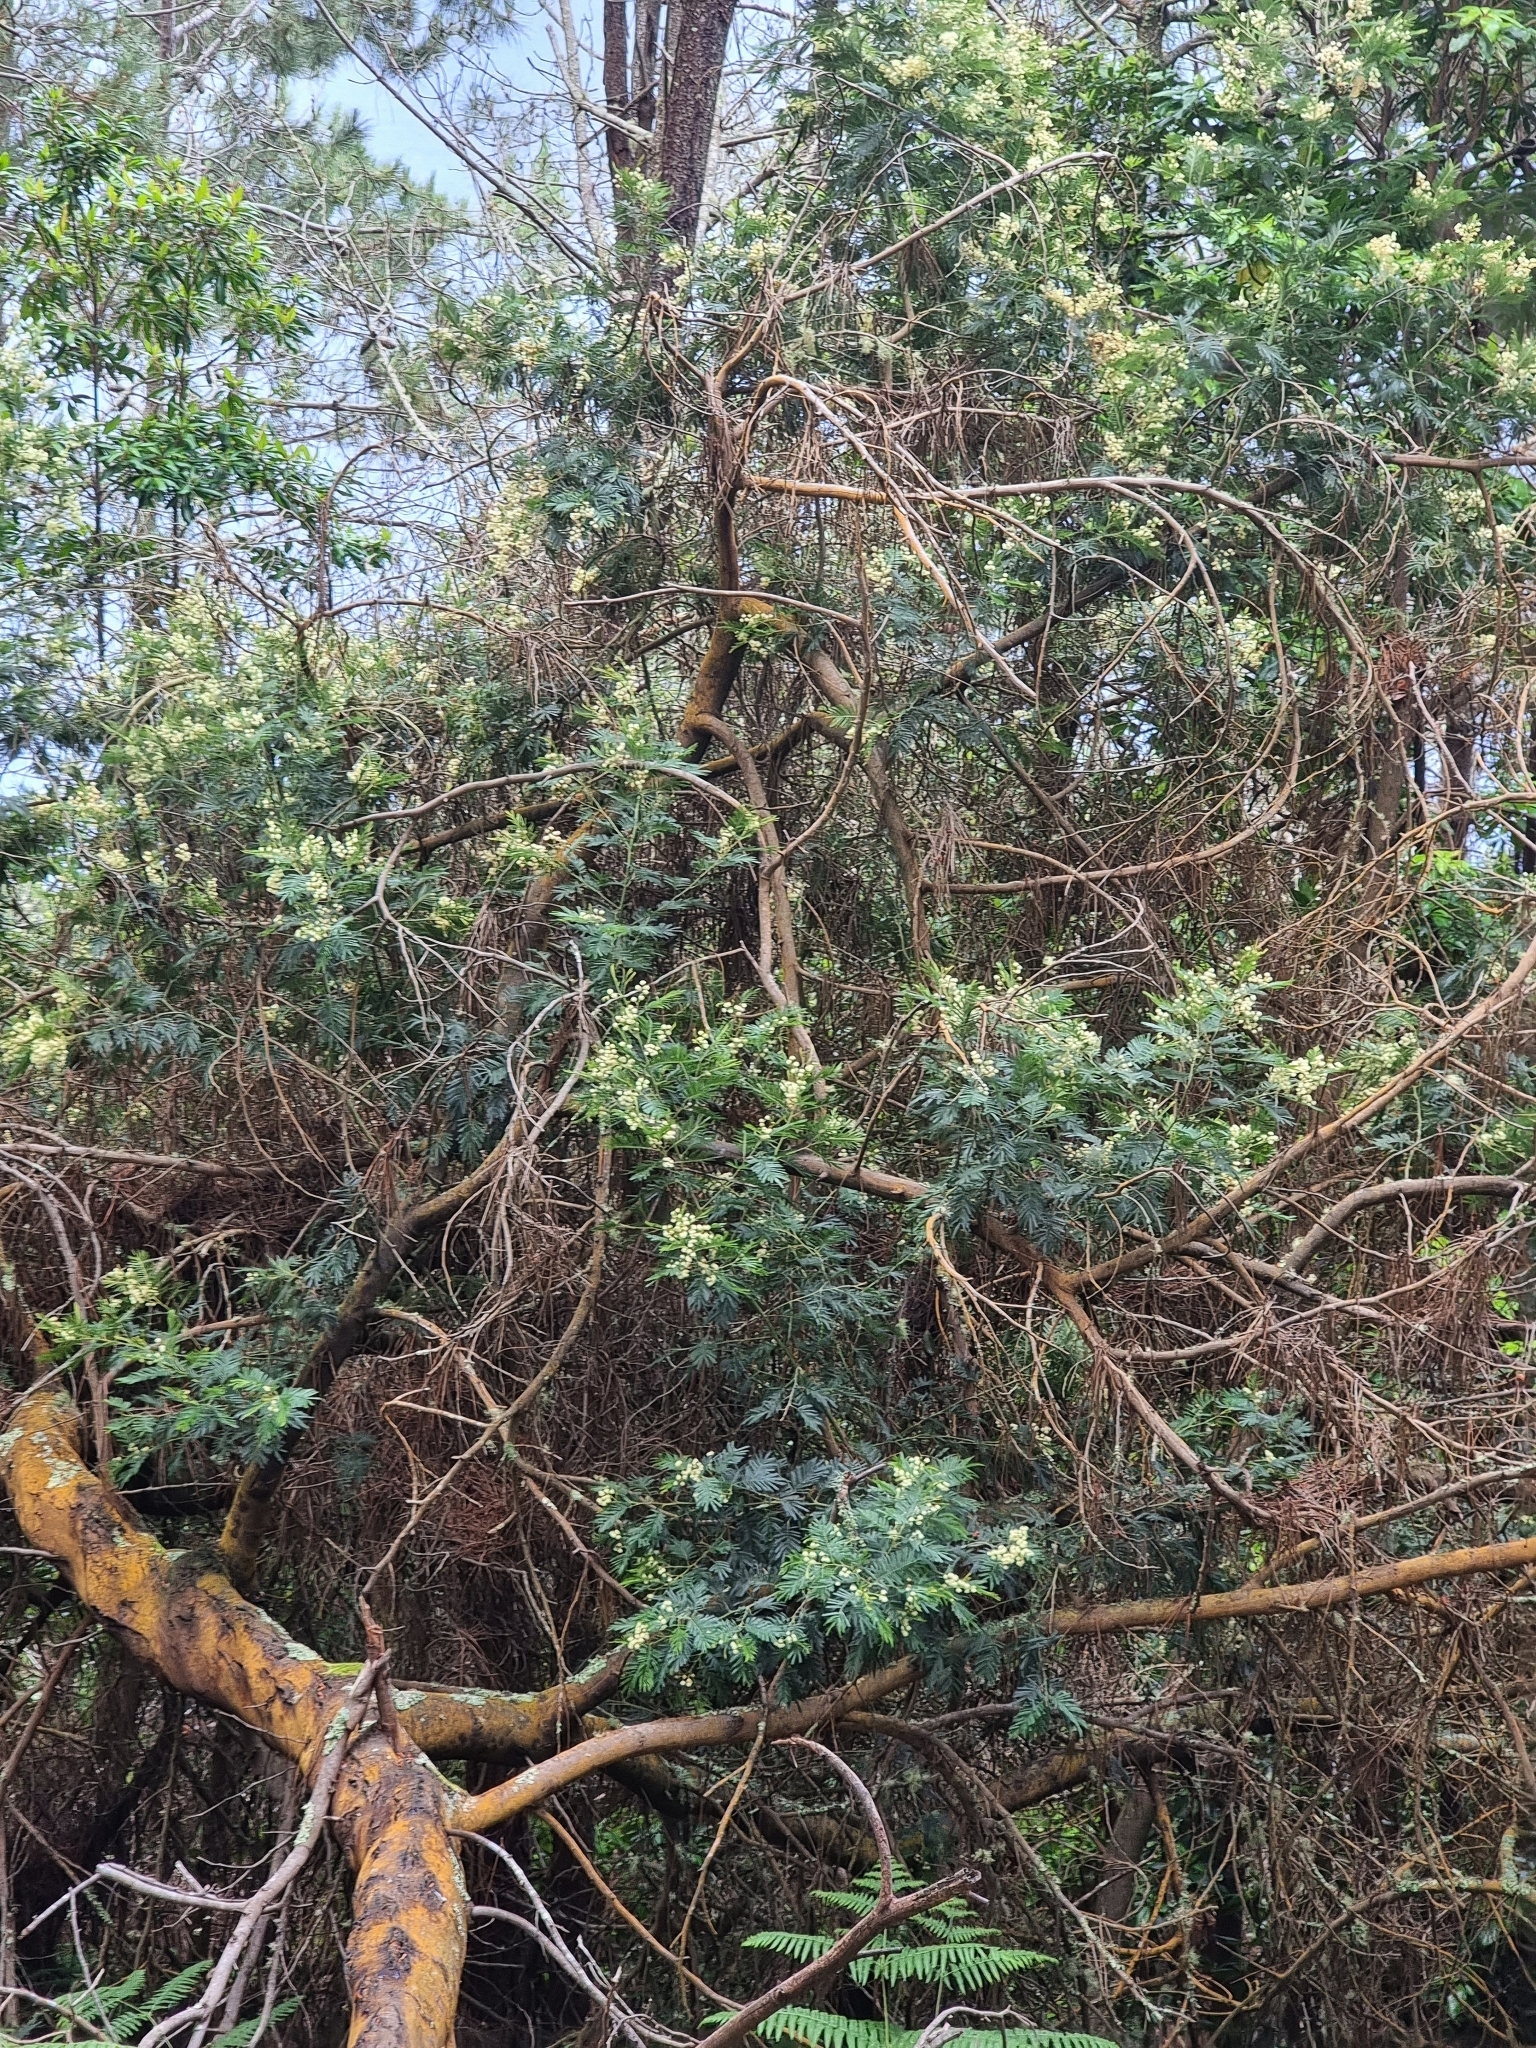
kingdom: Plantae
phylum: Tracheophyta
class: Magnoliopsida
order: Fabales
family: Fabaceae
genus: Acacia
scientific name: Acacia mearnsii
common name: Black wattle
